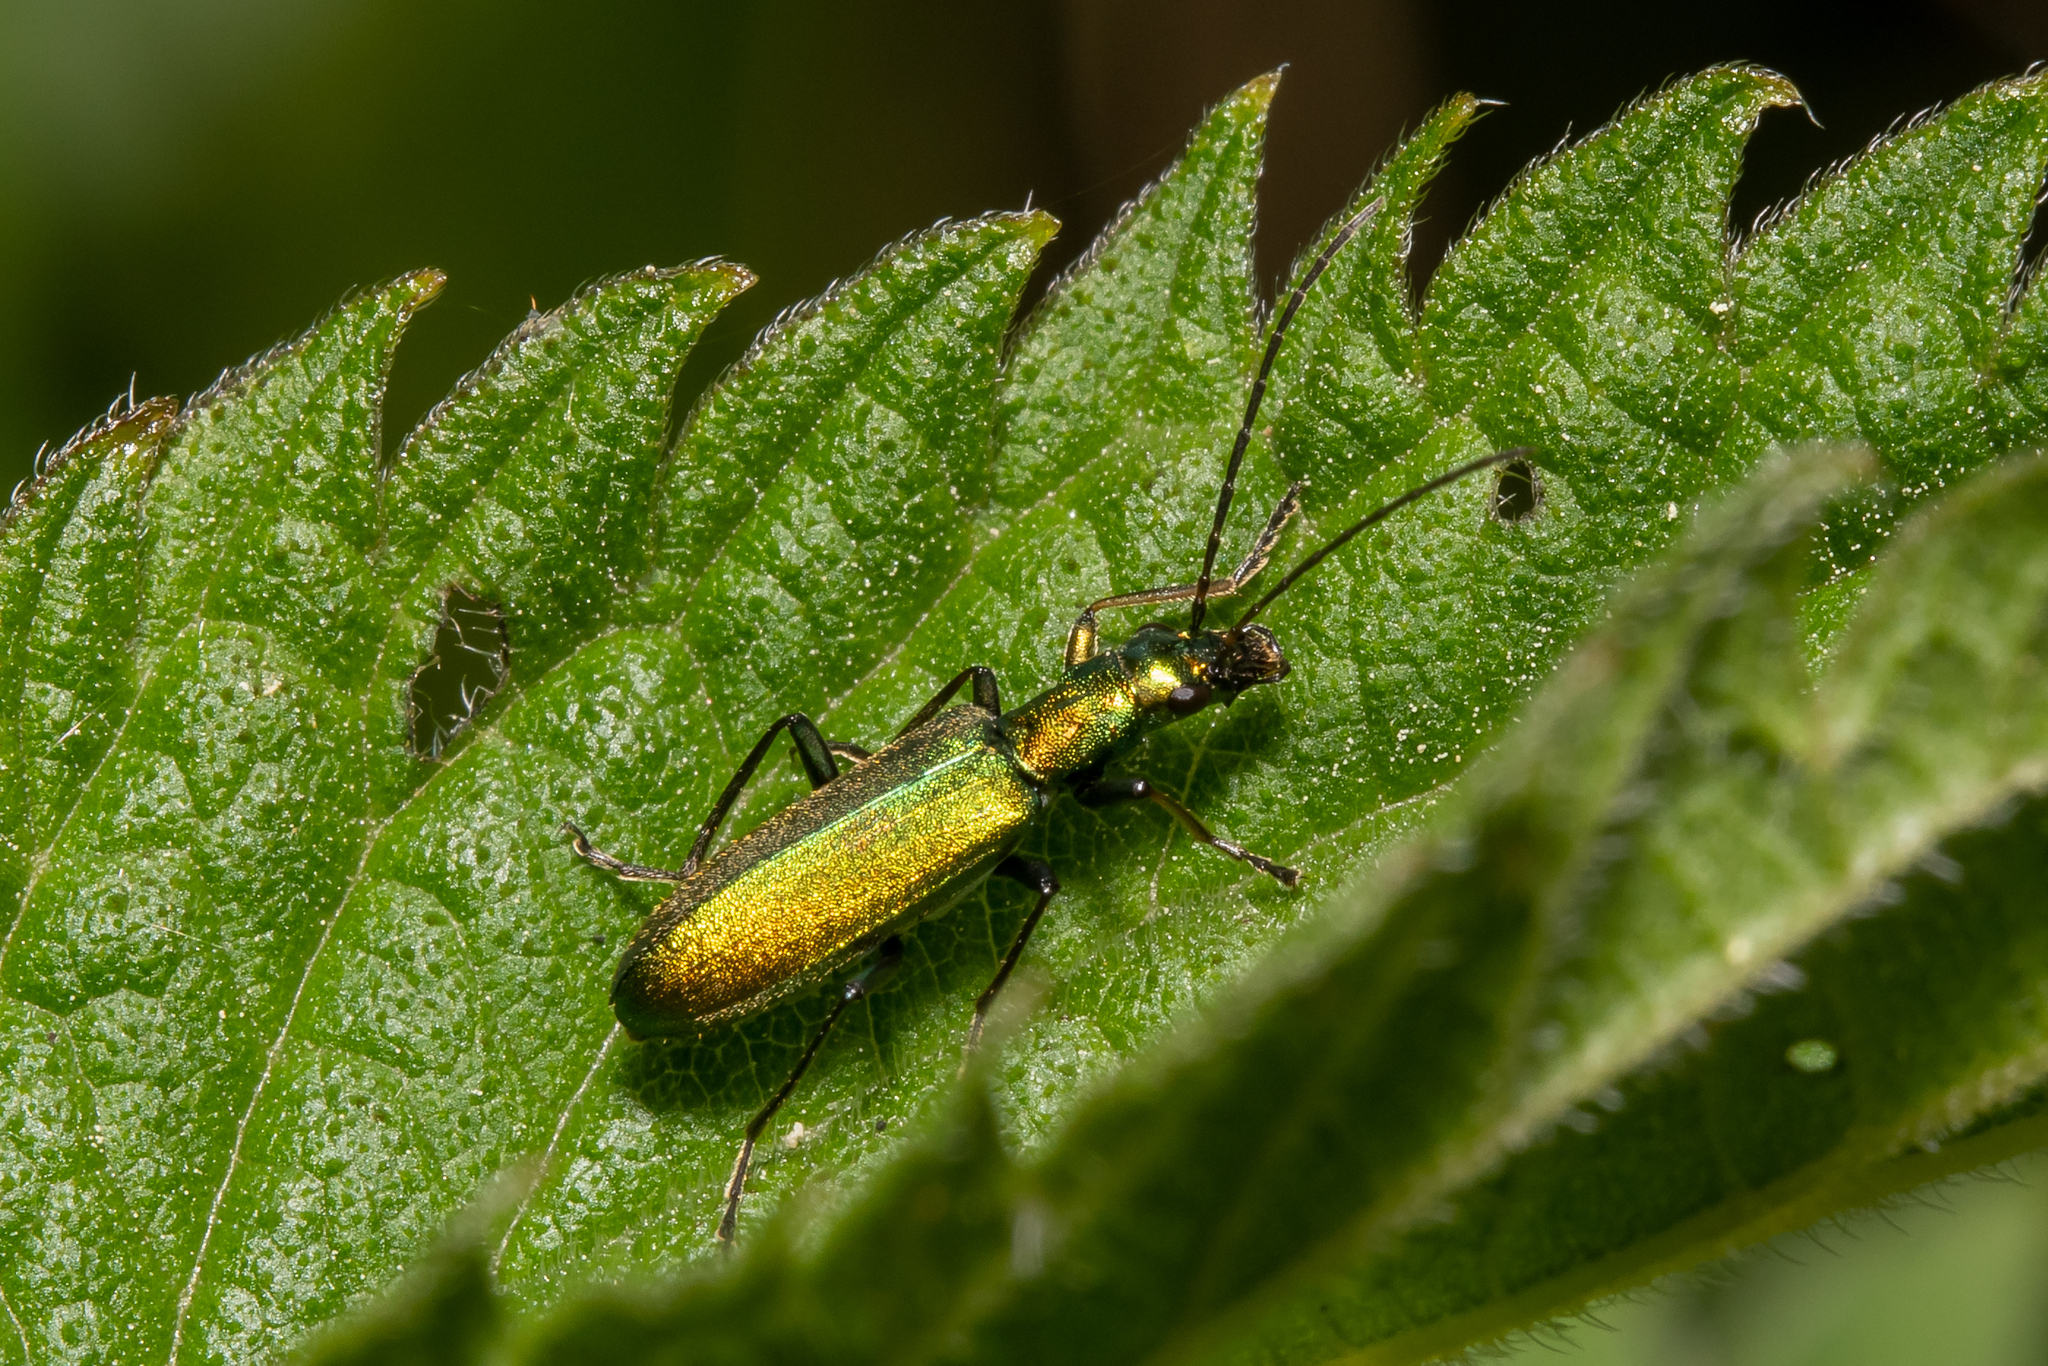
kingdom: Animalia
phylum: Arthropoda
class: Insecta
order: Coleoptera
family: Oedemeridae
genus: Chrysanthia
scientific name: Chrysanthia viridissima
